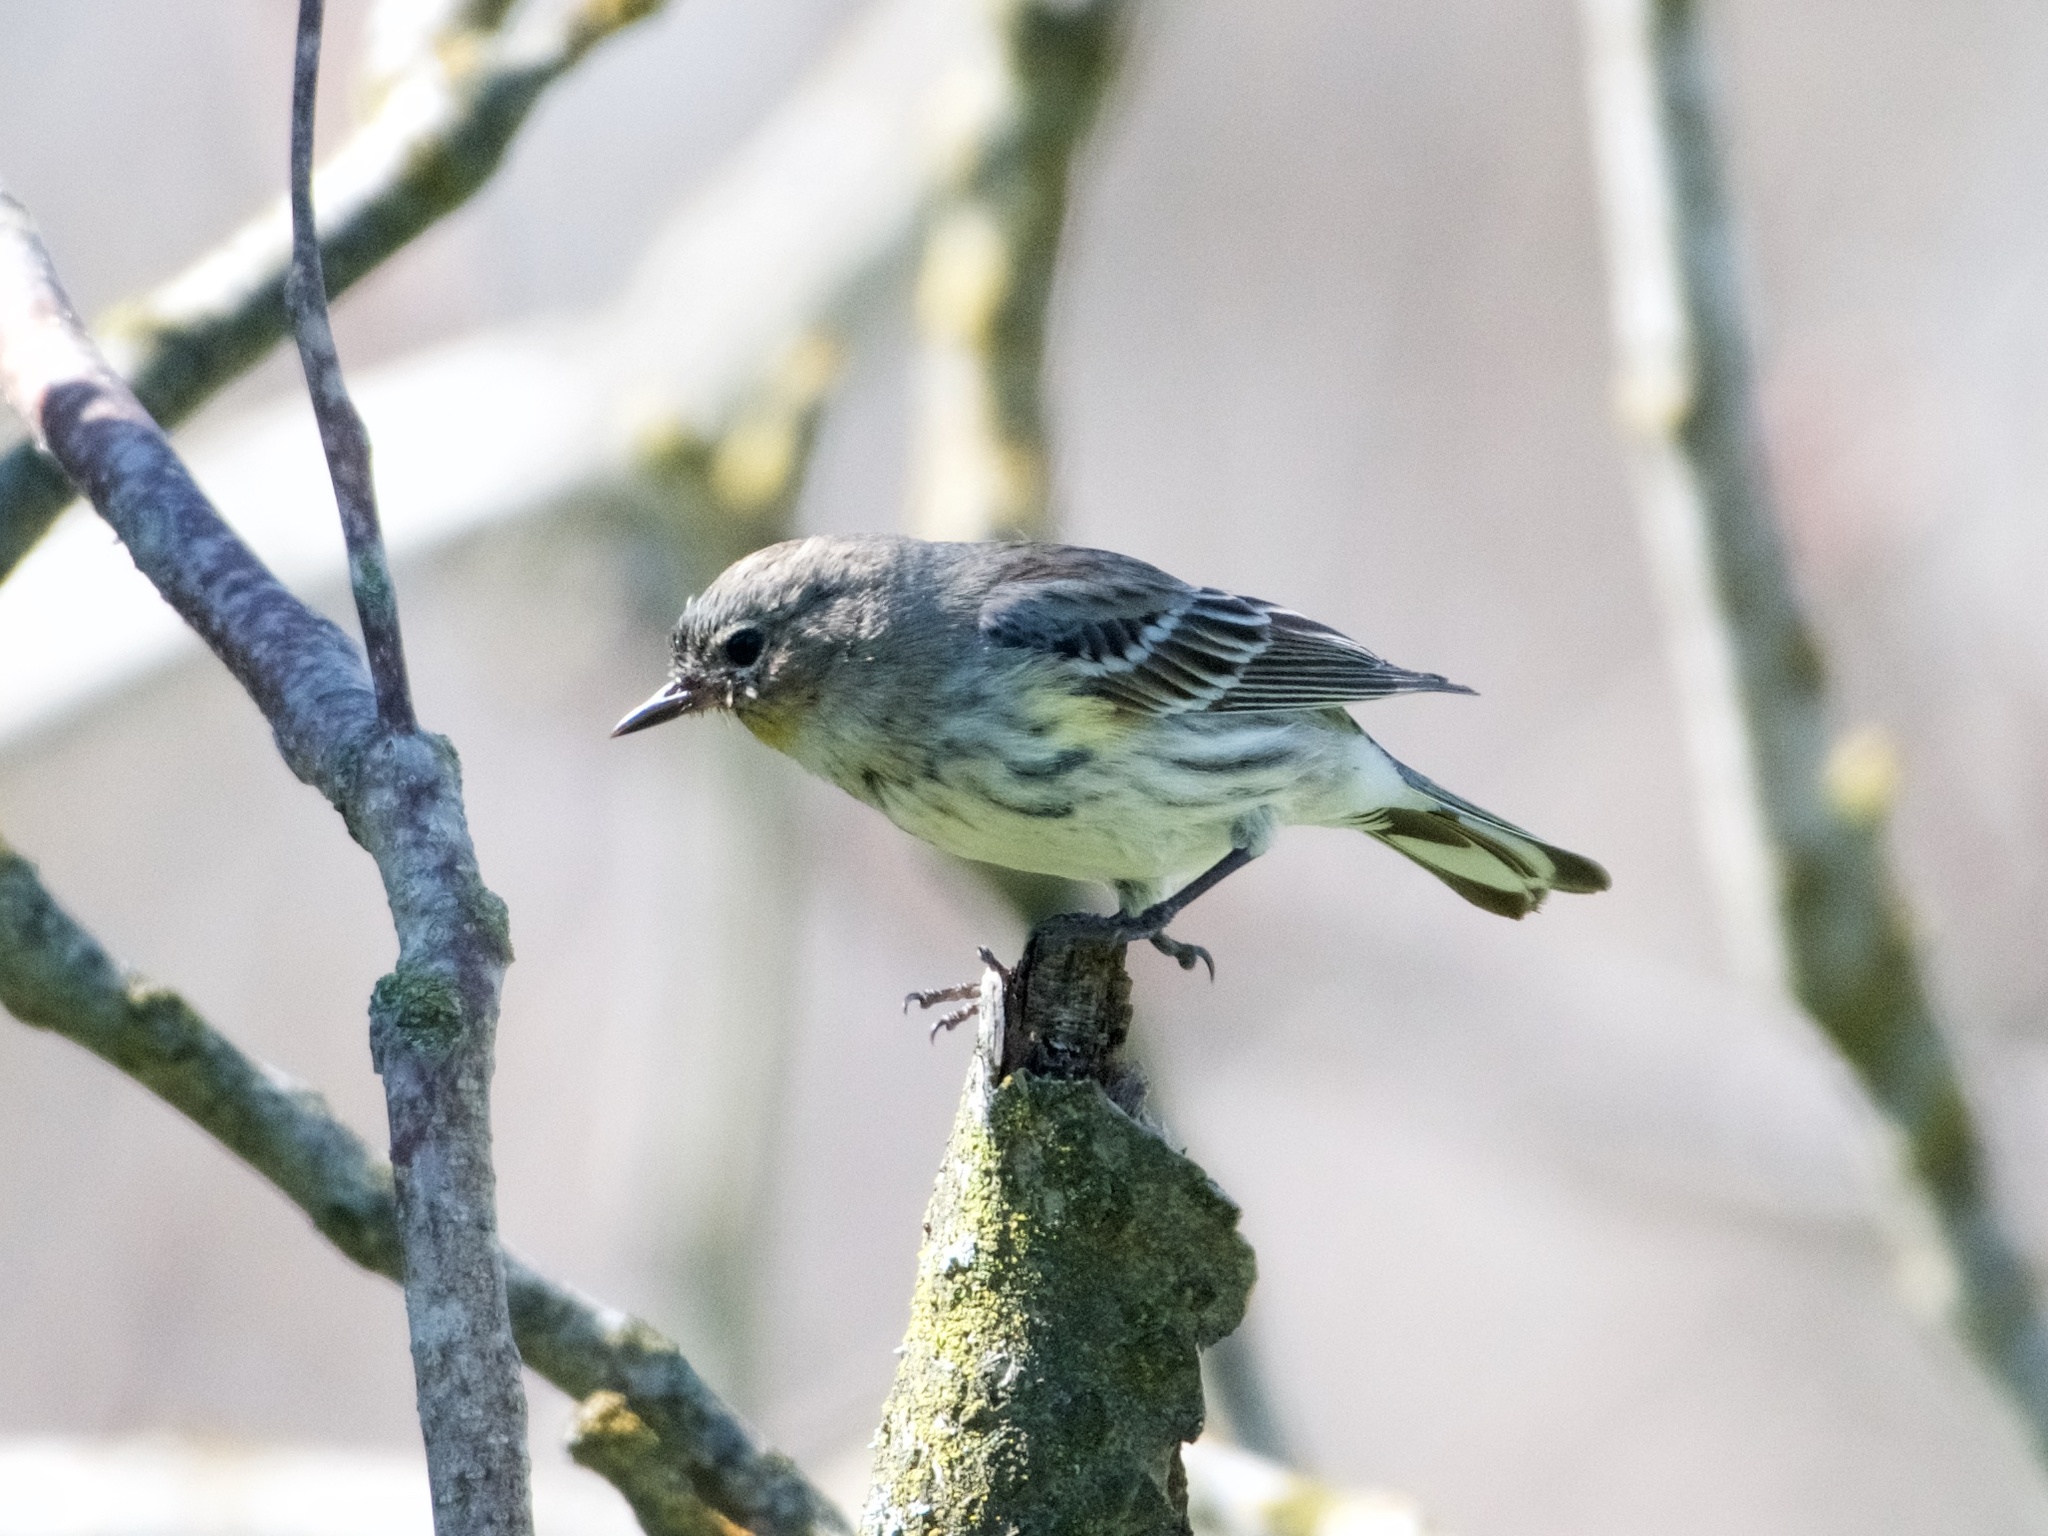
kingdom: Animalia
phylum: Chordata
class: Aves
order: Passeriformes
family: Parulidae
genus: Setophaga
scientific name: Setophaga coronata
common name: Myrtle warbler
